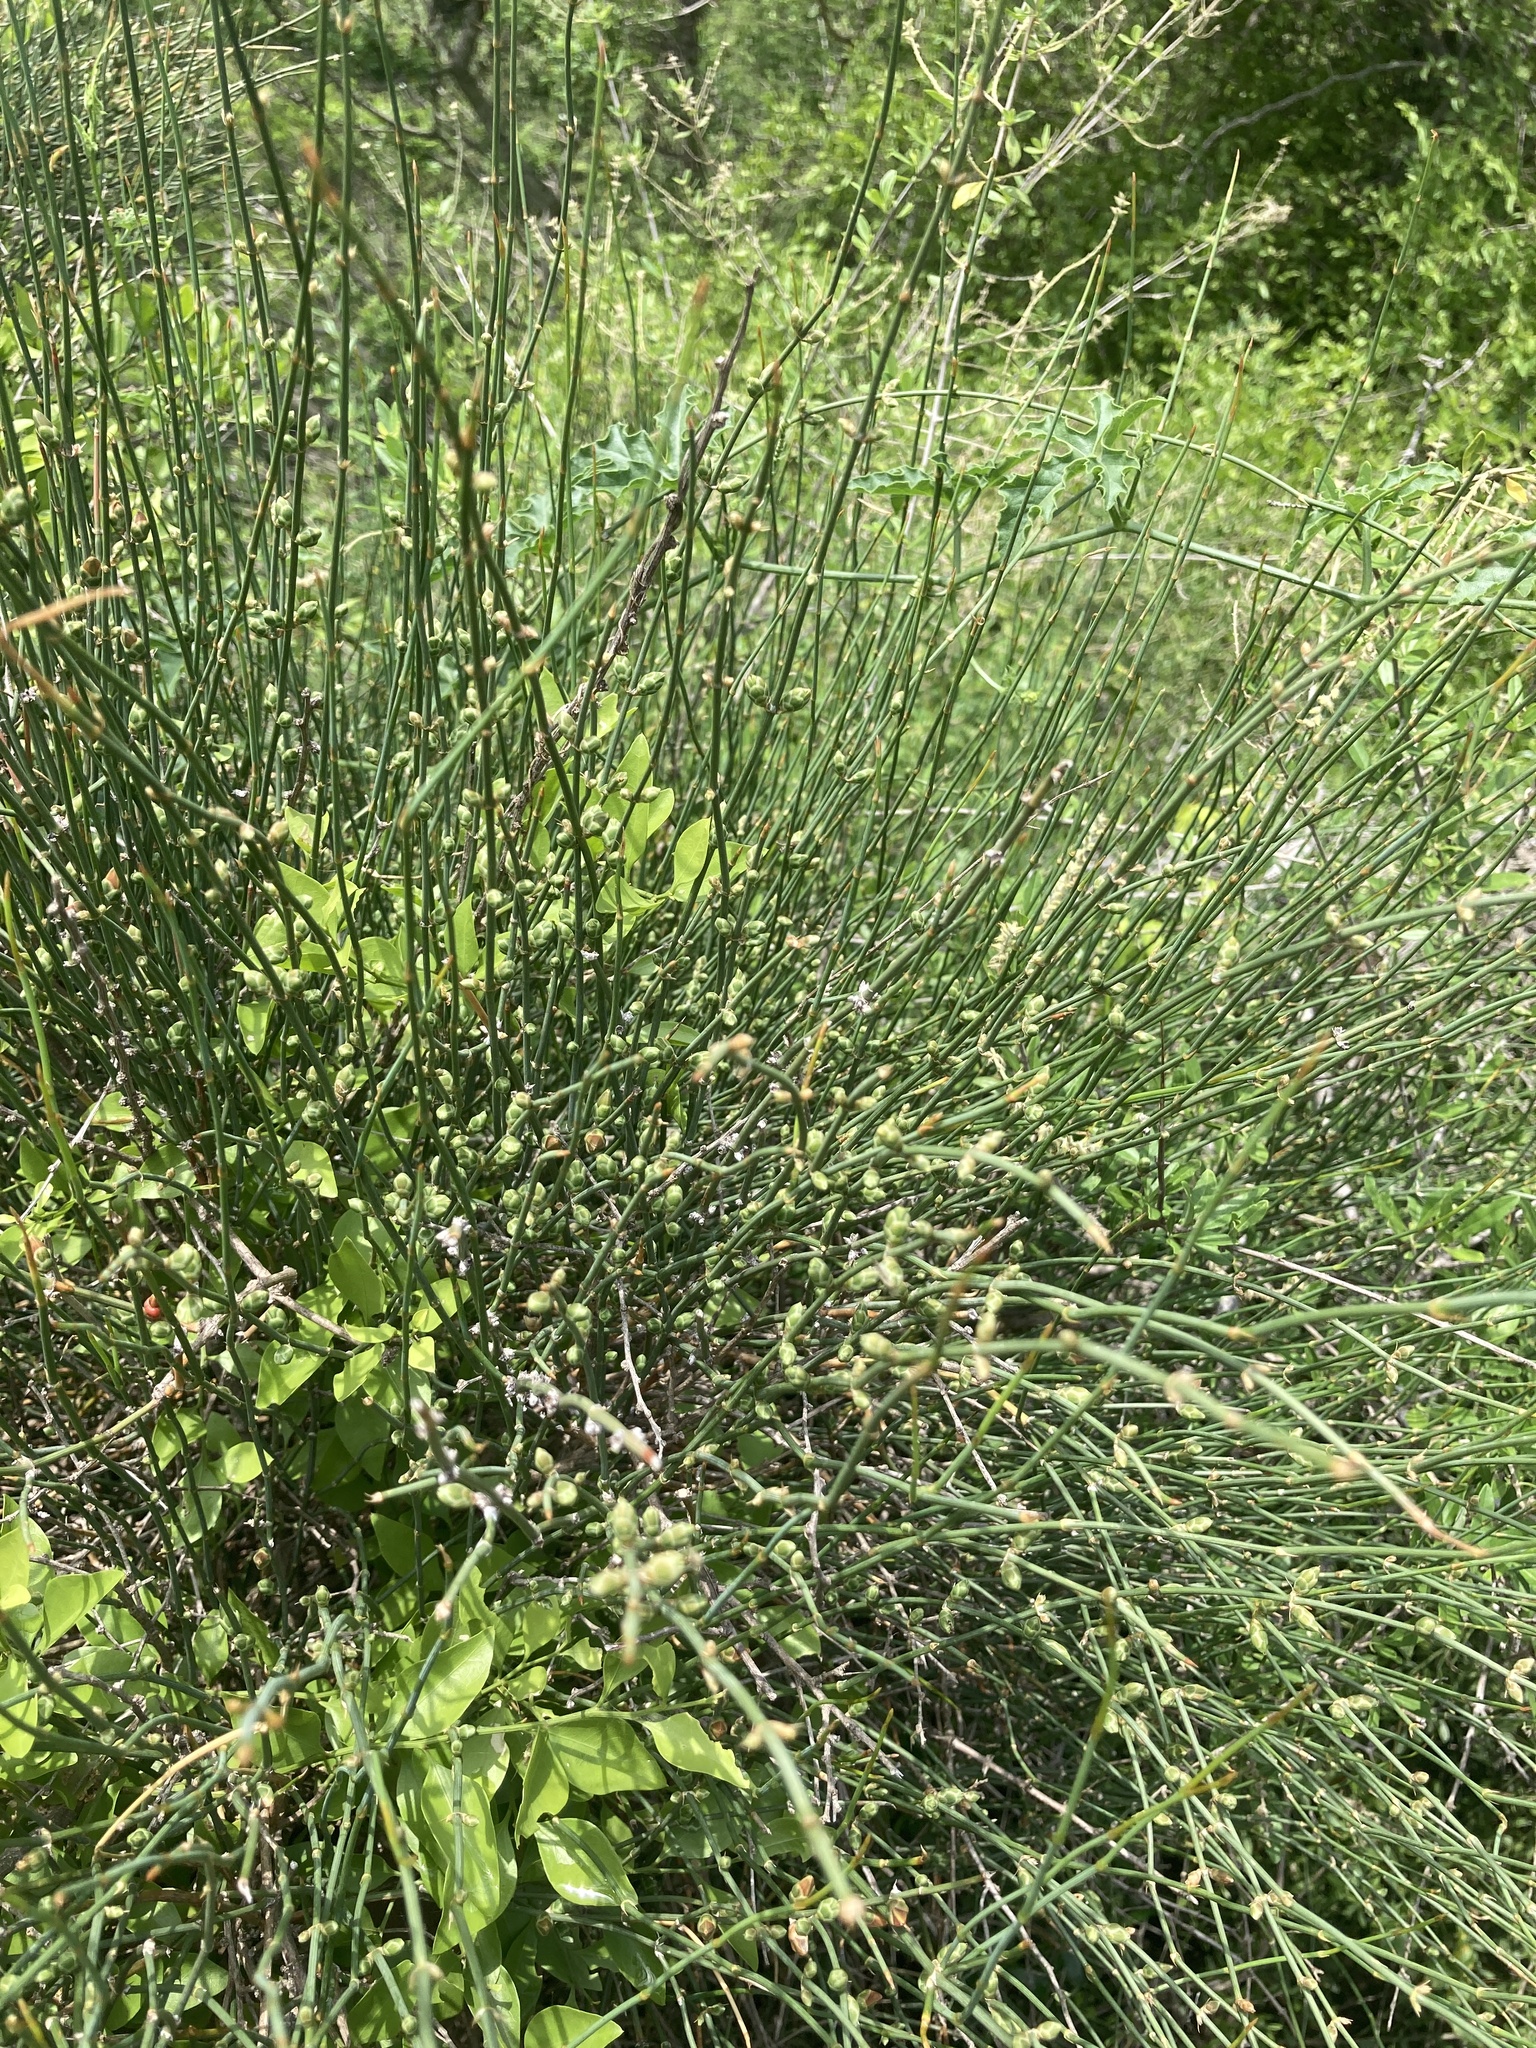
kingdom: Plantae
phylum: Tracheophyta
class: Gnetopsida
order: Ephedrales
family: Ephedraceae
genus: Ephedra
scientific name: Ephedra triandra
